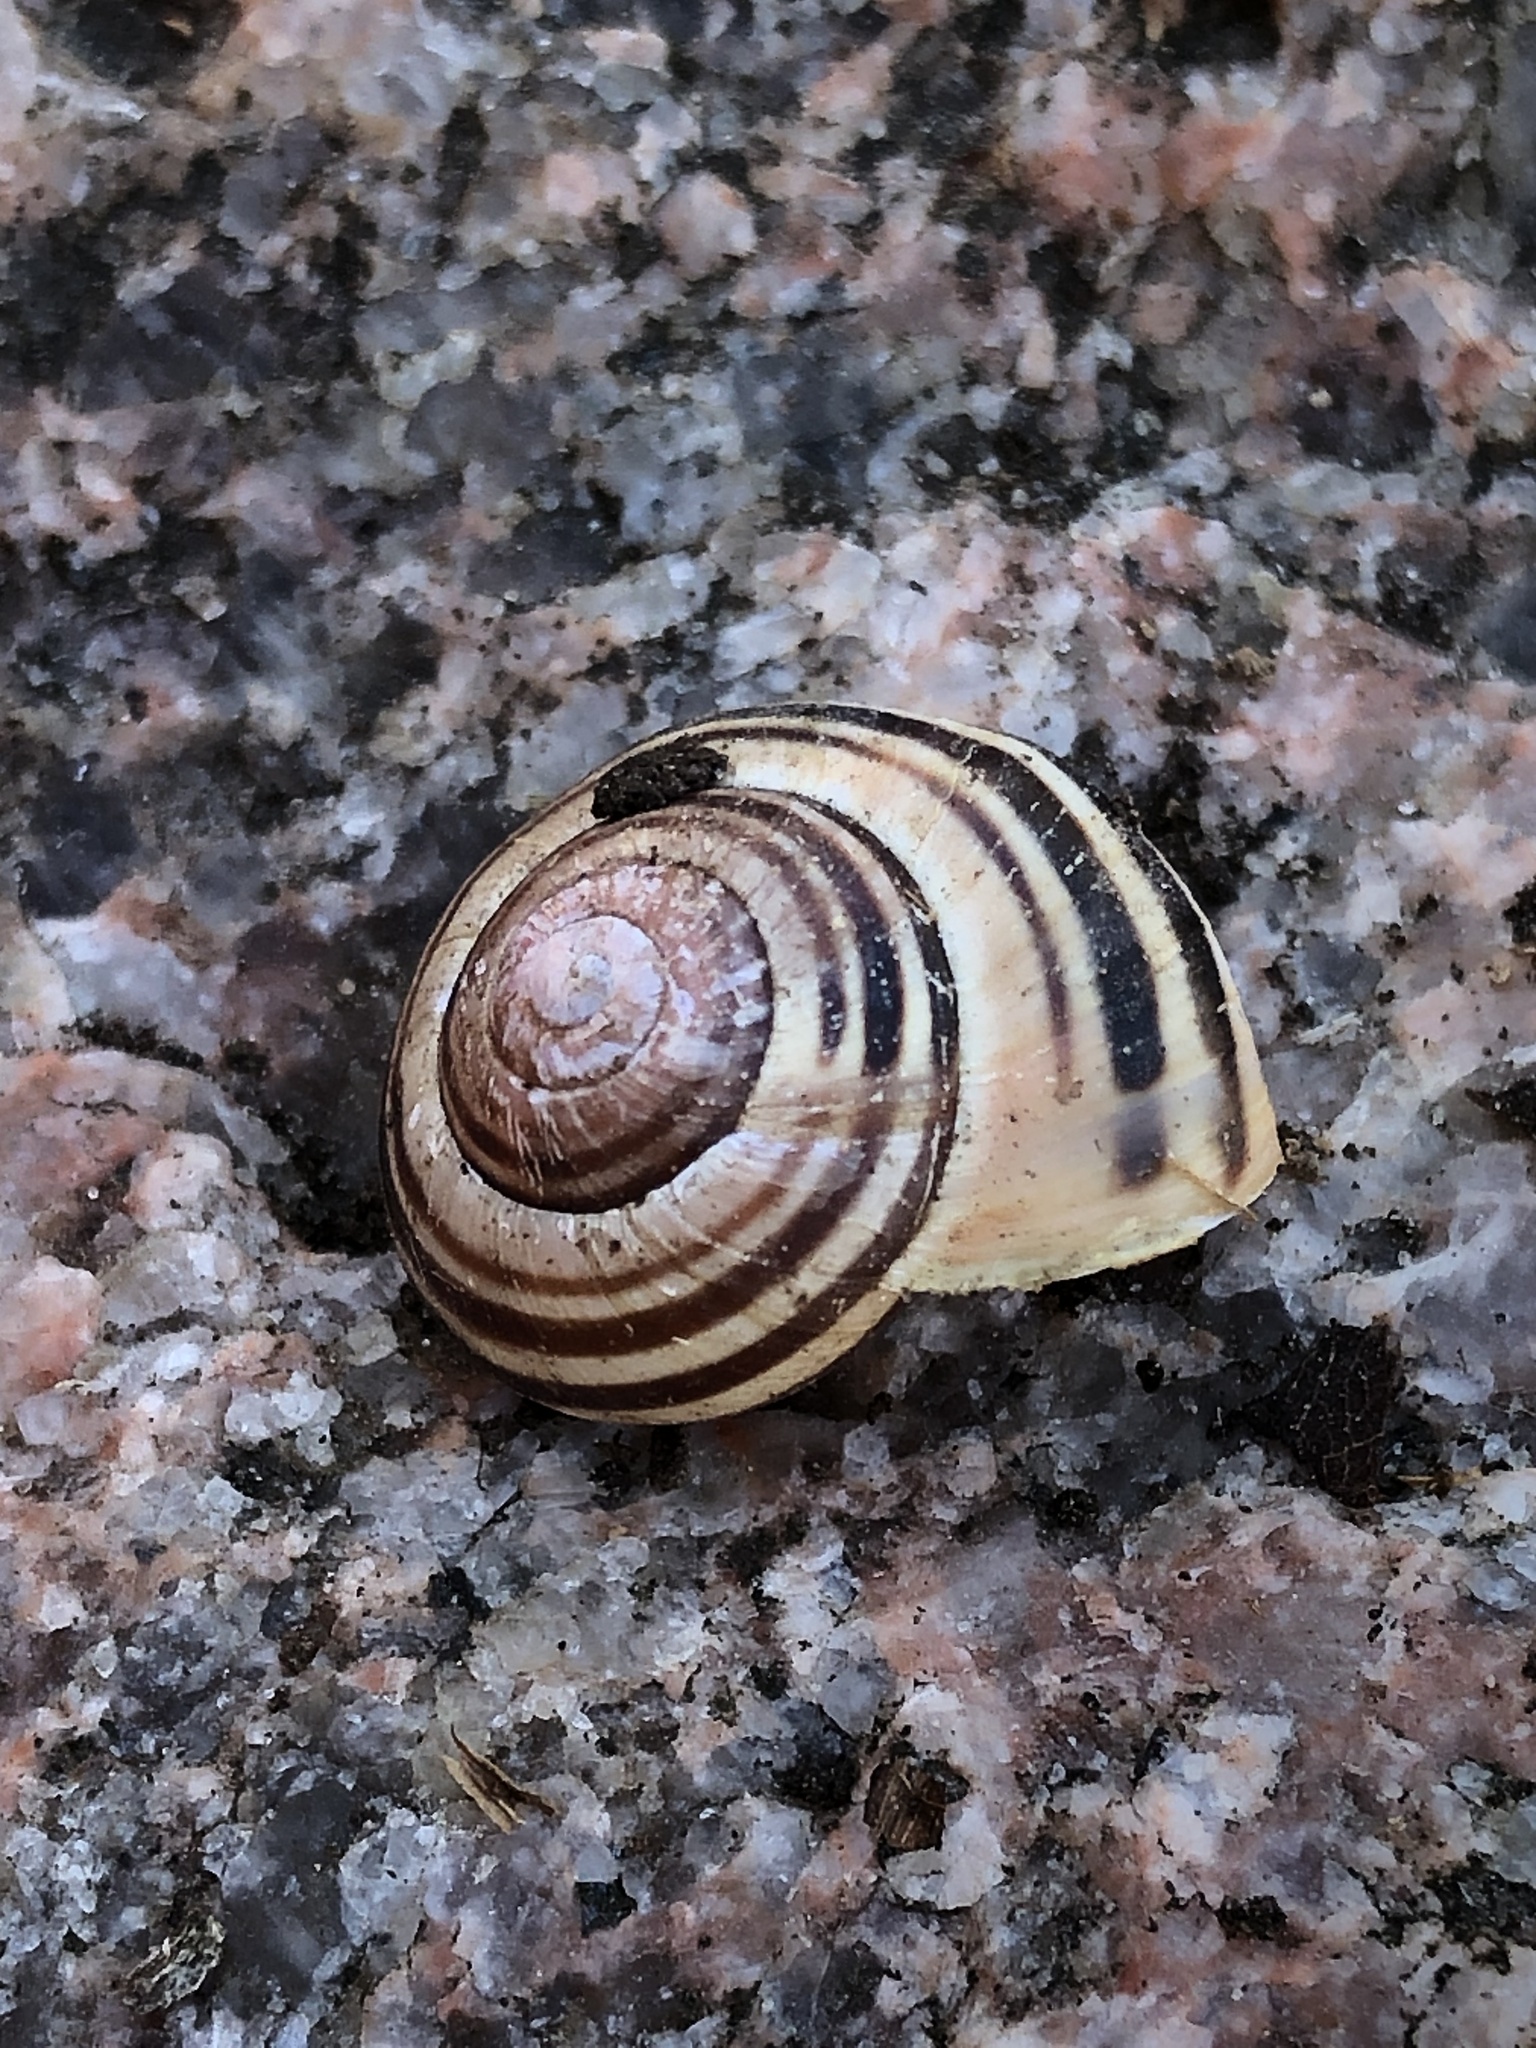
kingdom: Animalia
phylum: Mollusca
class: Gastropoda
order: Stylommatophora
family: Helicidae
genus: Cepaea
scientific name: Cepaea nemoralis
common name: Grovesnail
